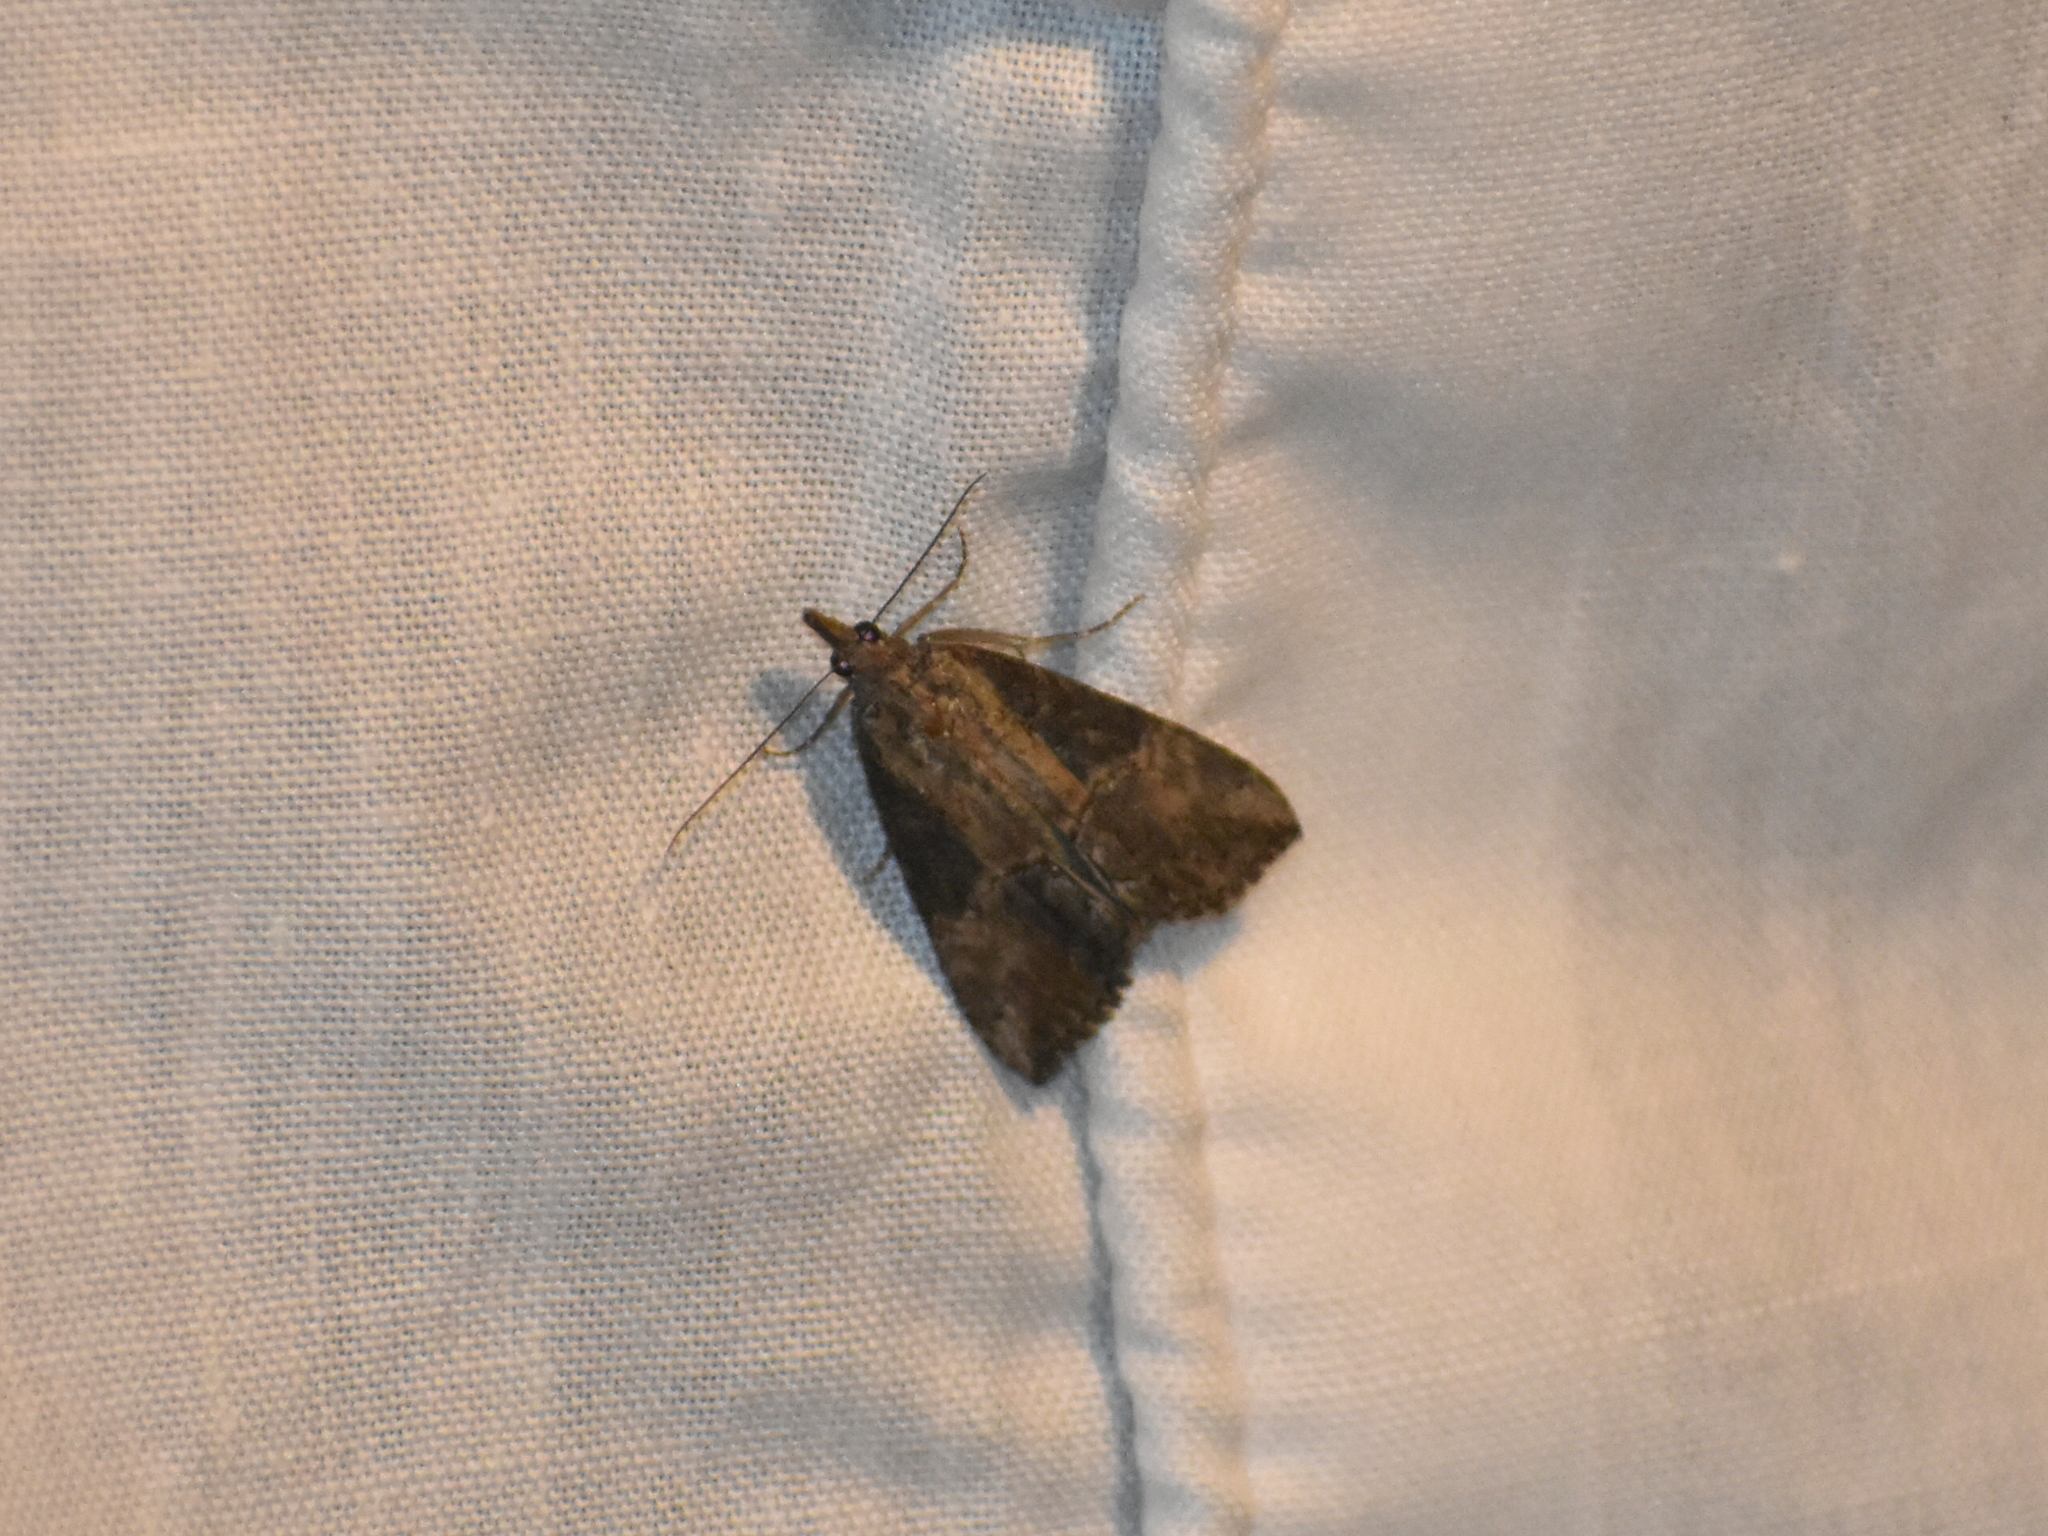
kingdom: Animalia
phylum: Arthropoda
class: Insecta
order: Lepidoptera
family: Erebidae
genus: Hypena
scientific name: Hypena scabra
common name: Green cloverworm
